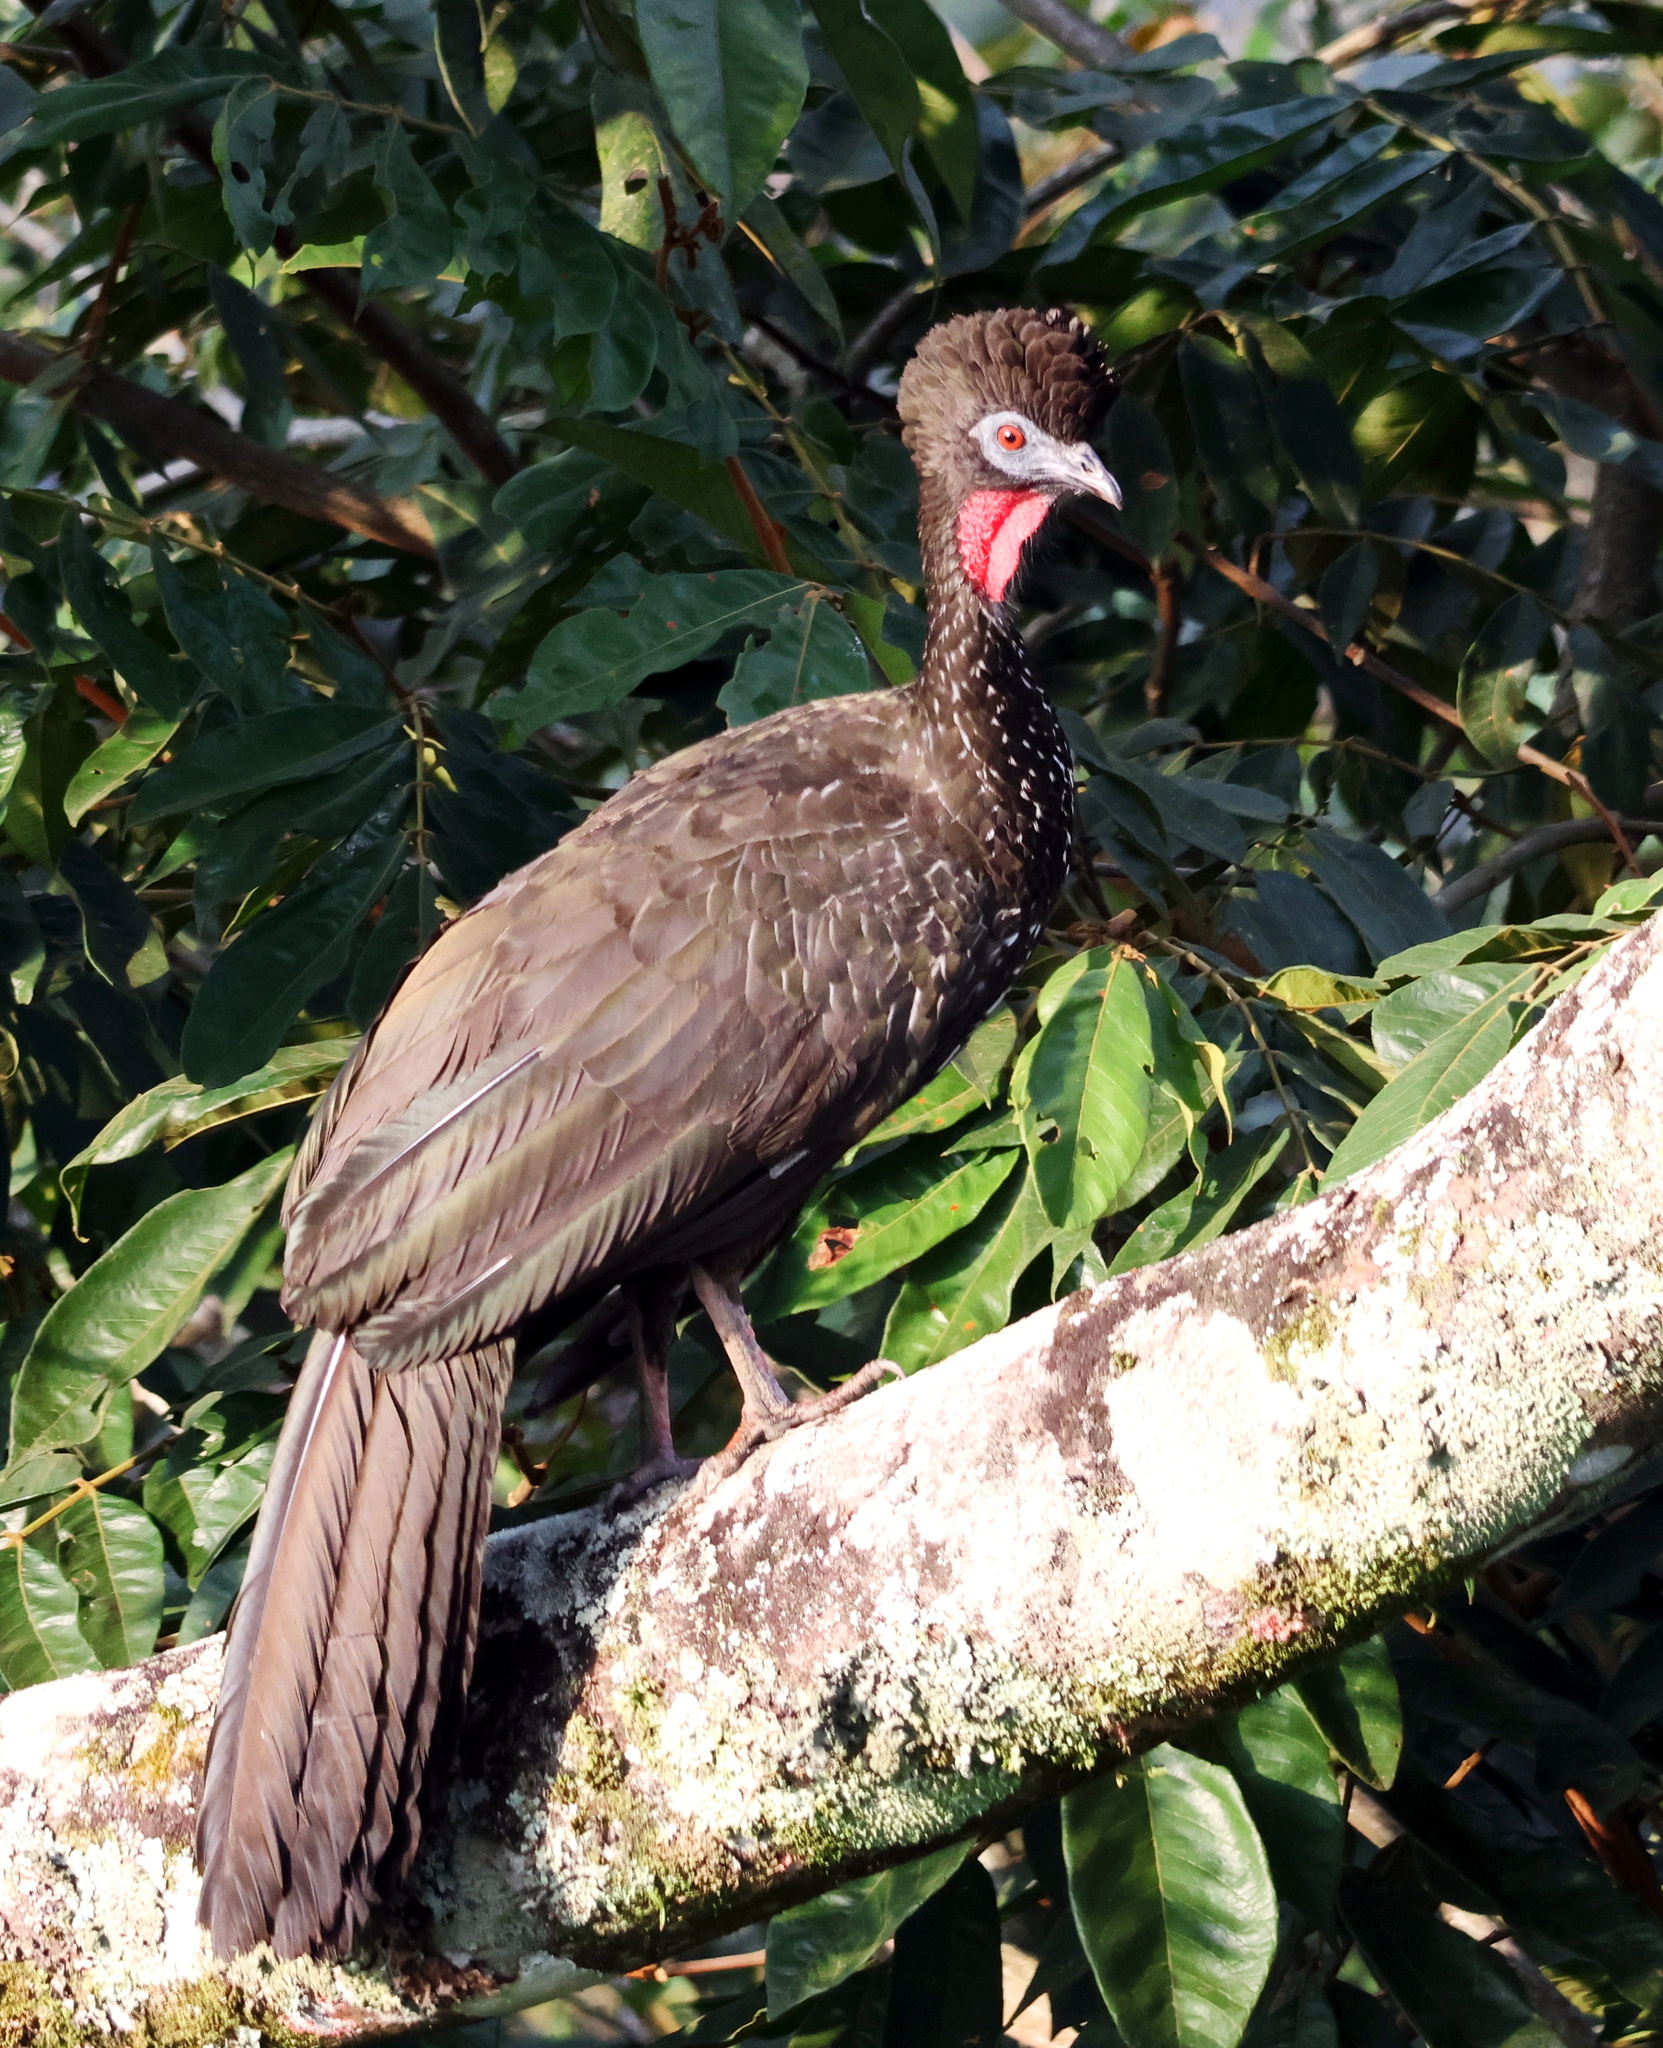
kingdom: Animalia
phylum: Chordata
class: Aves
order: Galliformes
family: Cracidae
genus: Penelope
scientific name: Penelope purpurascens
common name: Crested guan
